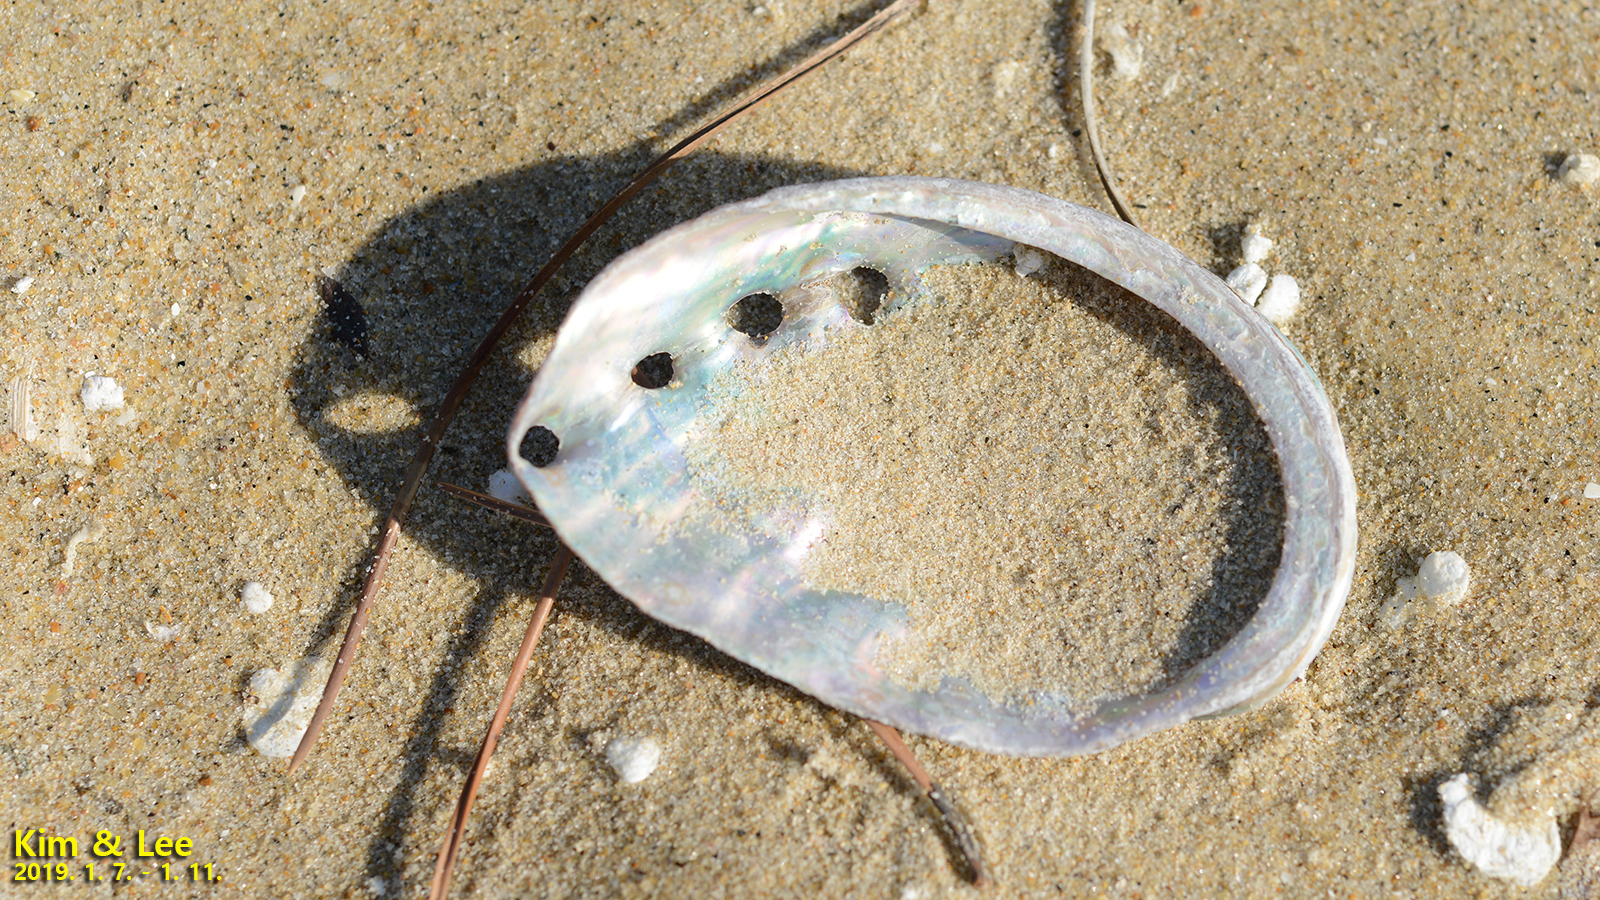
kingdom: Animalia
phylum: Mollusca
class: Gastropoda
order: Lepetellida
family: Haliotidae
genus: Haliotis
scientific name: Haliotis discus
